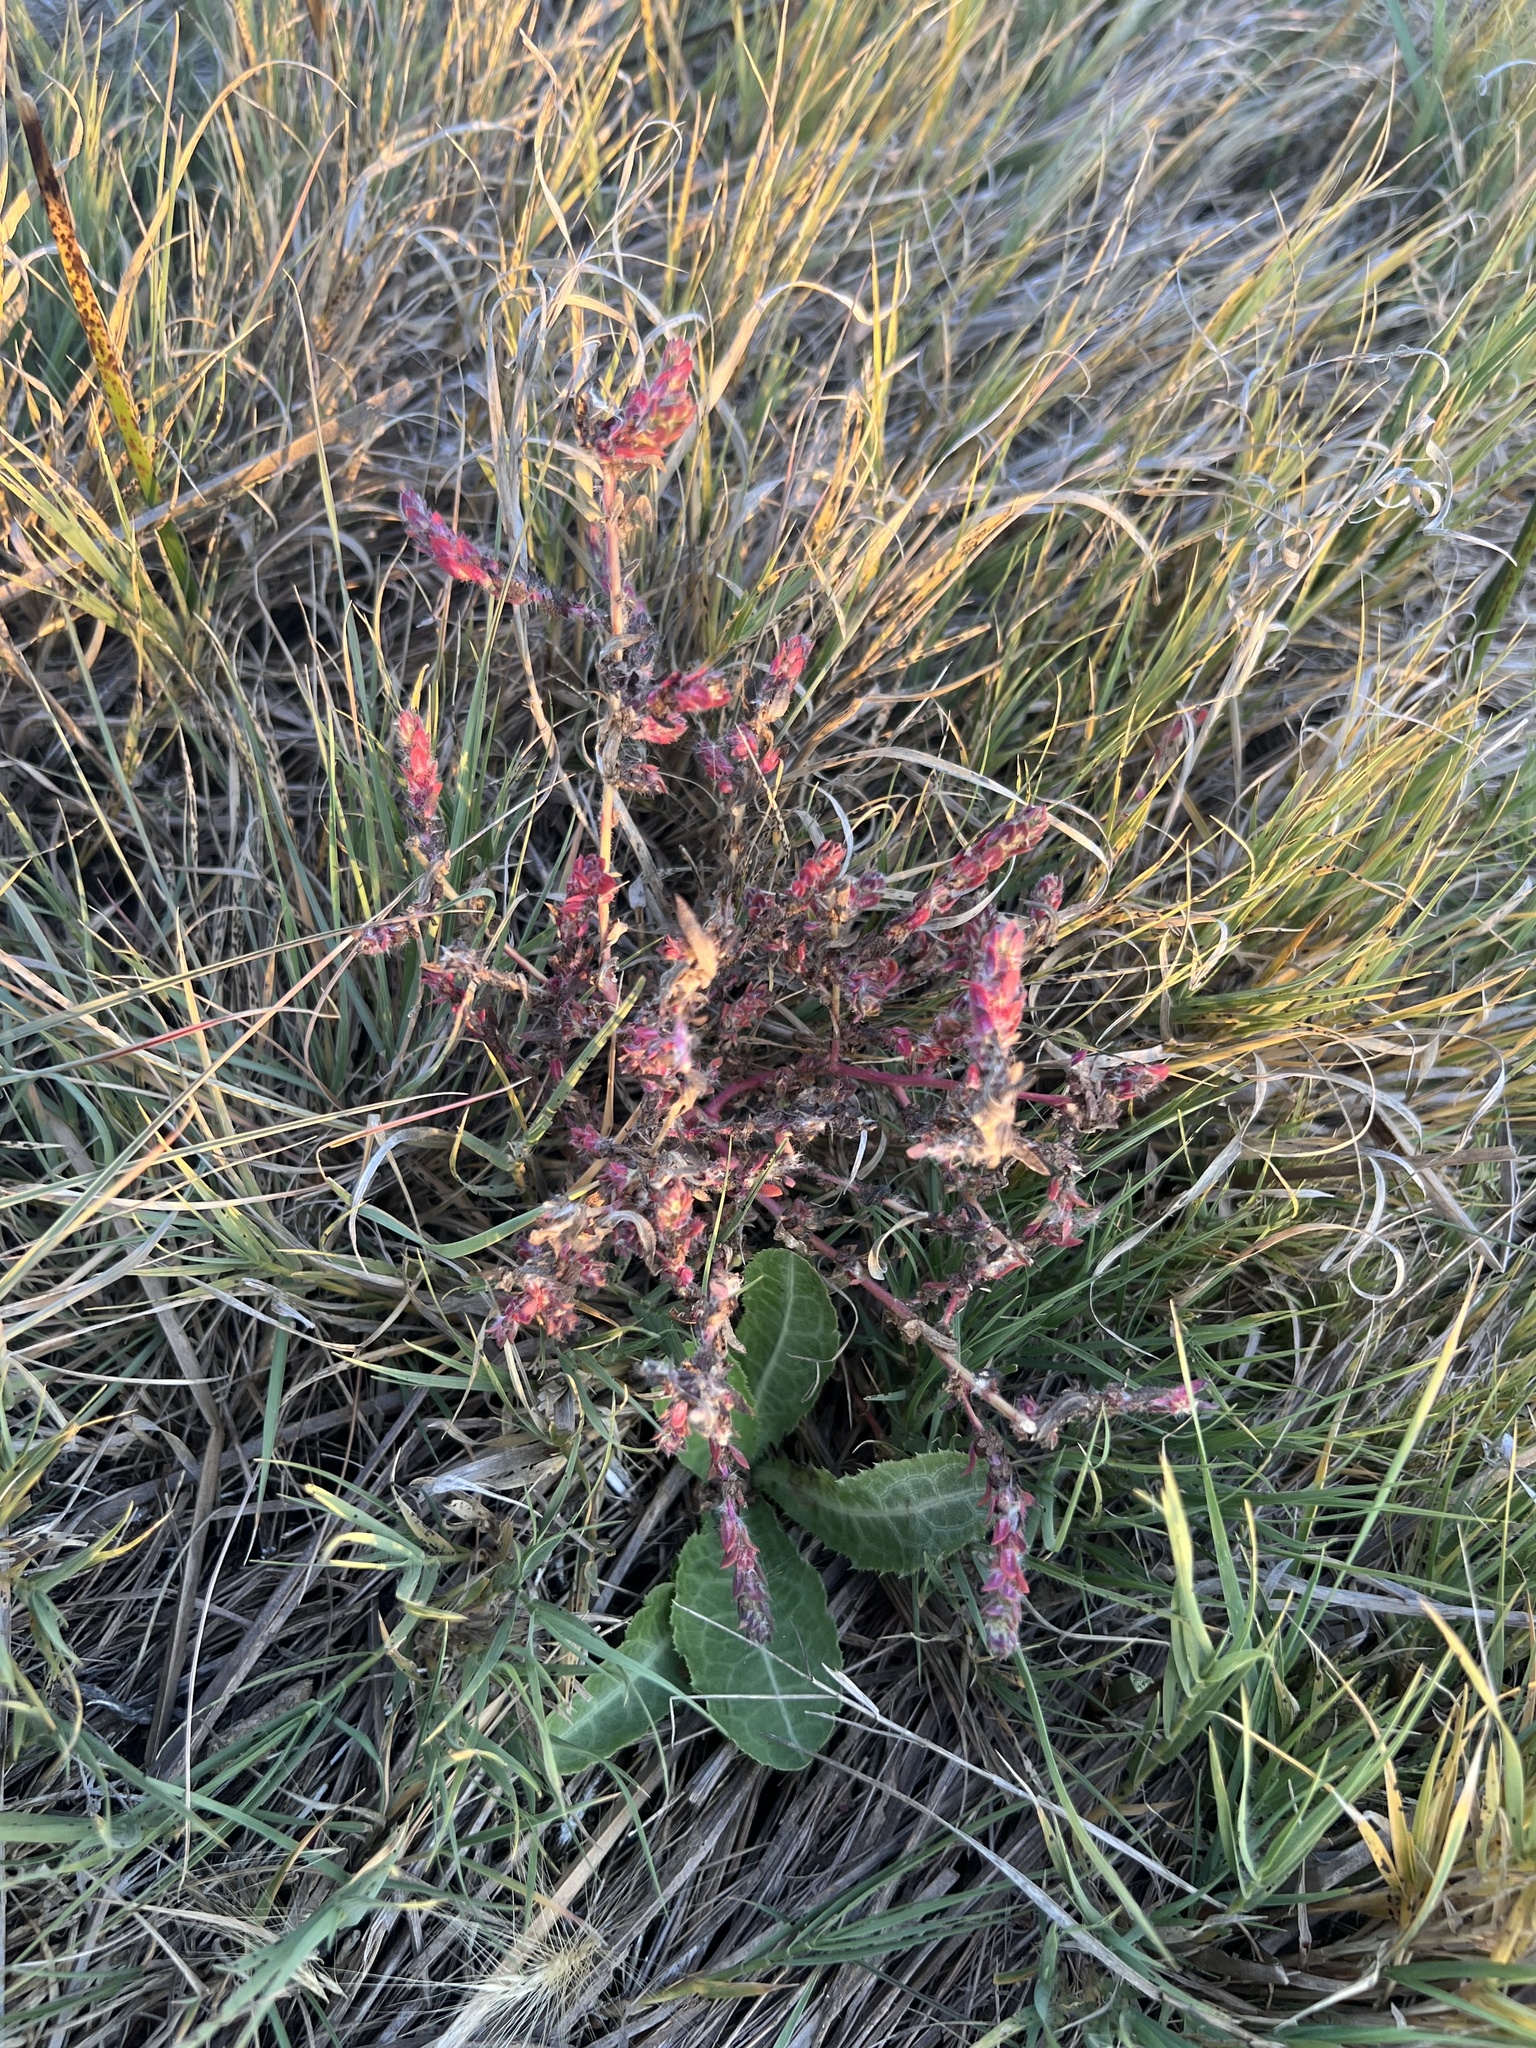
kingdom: Plantae
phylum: Tracheophyta
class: Magnoliopsida
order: Caryophyllales
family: Amaranthaceae
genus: Bassia
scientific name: Bassia scoparia
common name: Belvedere
